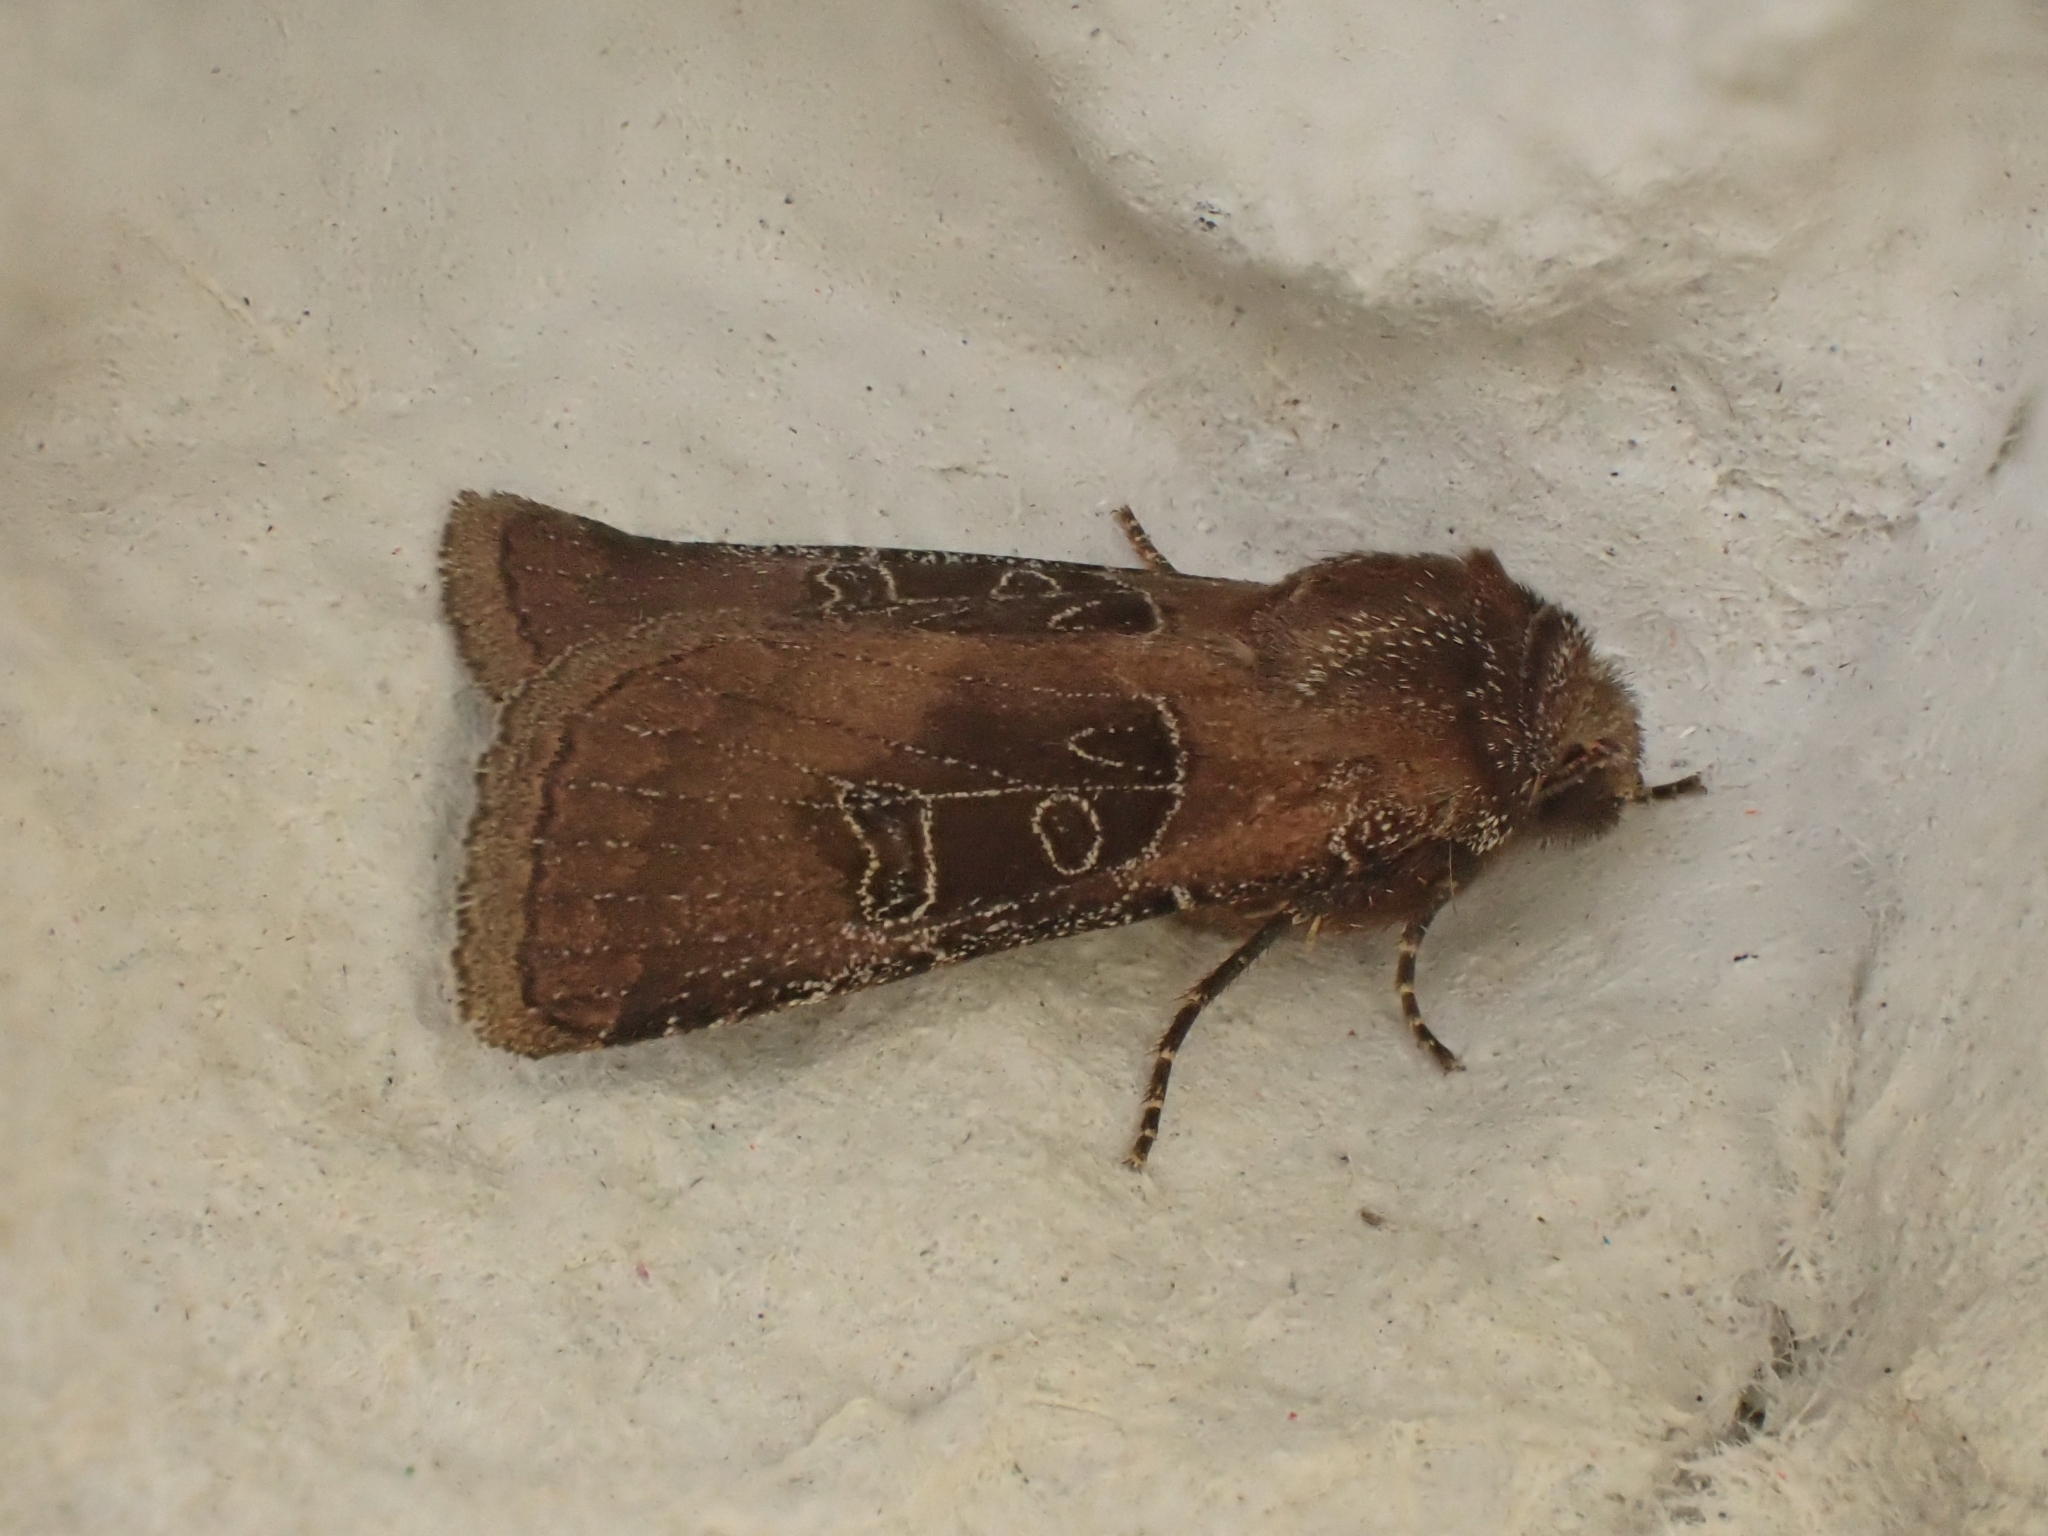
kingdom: Animalia
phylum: Arthropoda
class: Insecta
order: Lepidoptera
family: Noctuidae
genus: Chersotis
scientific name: Chersotis cuprea
